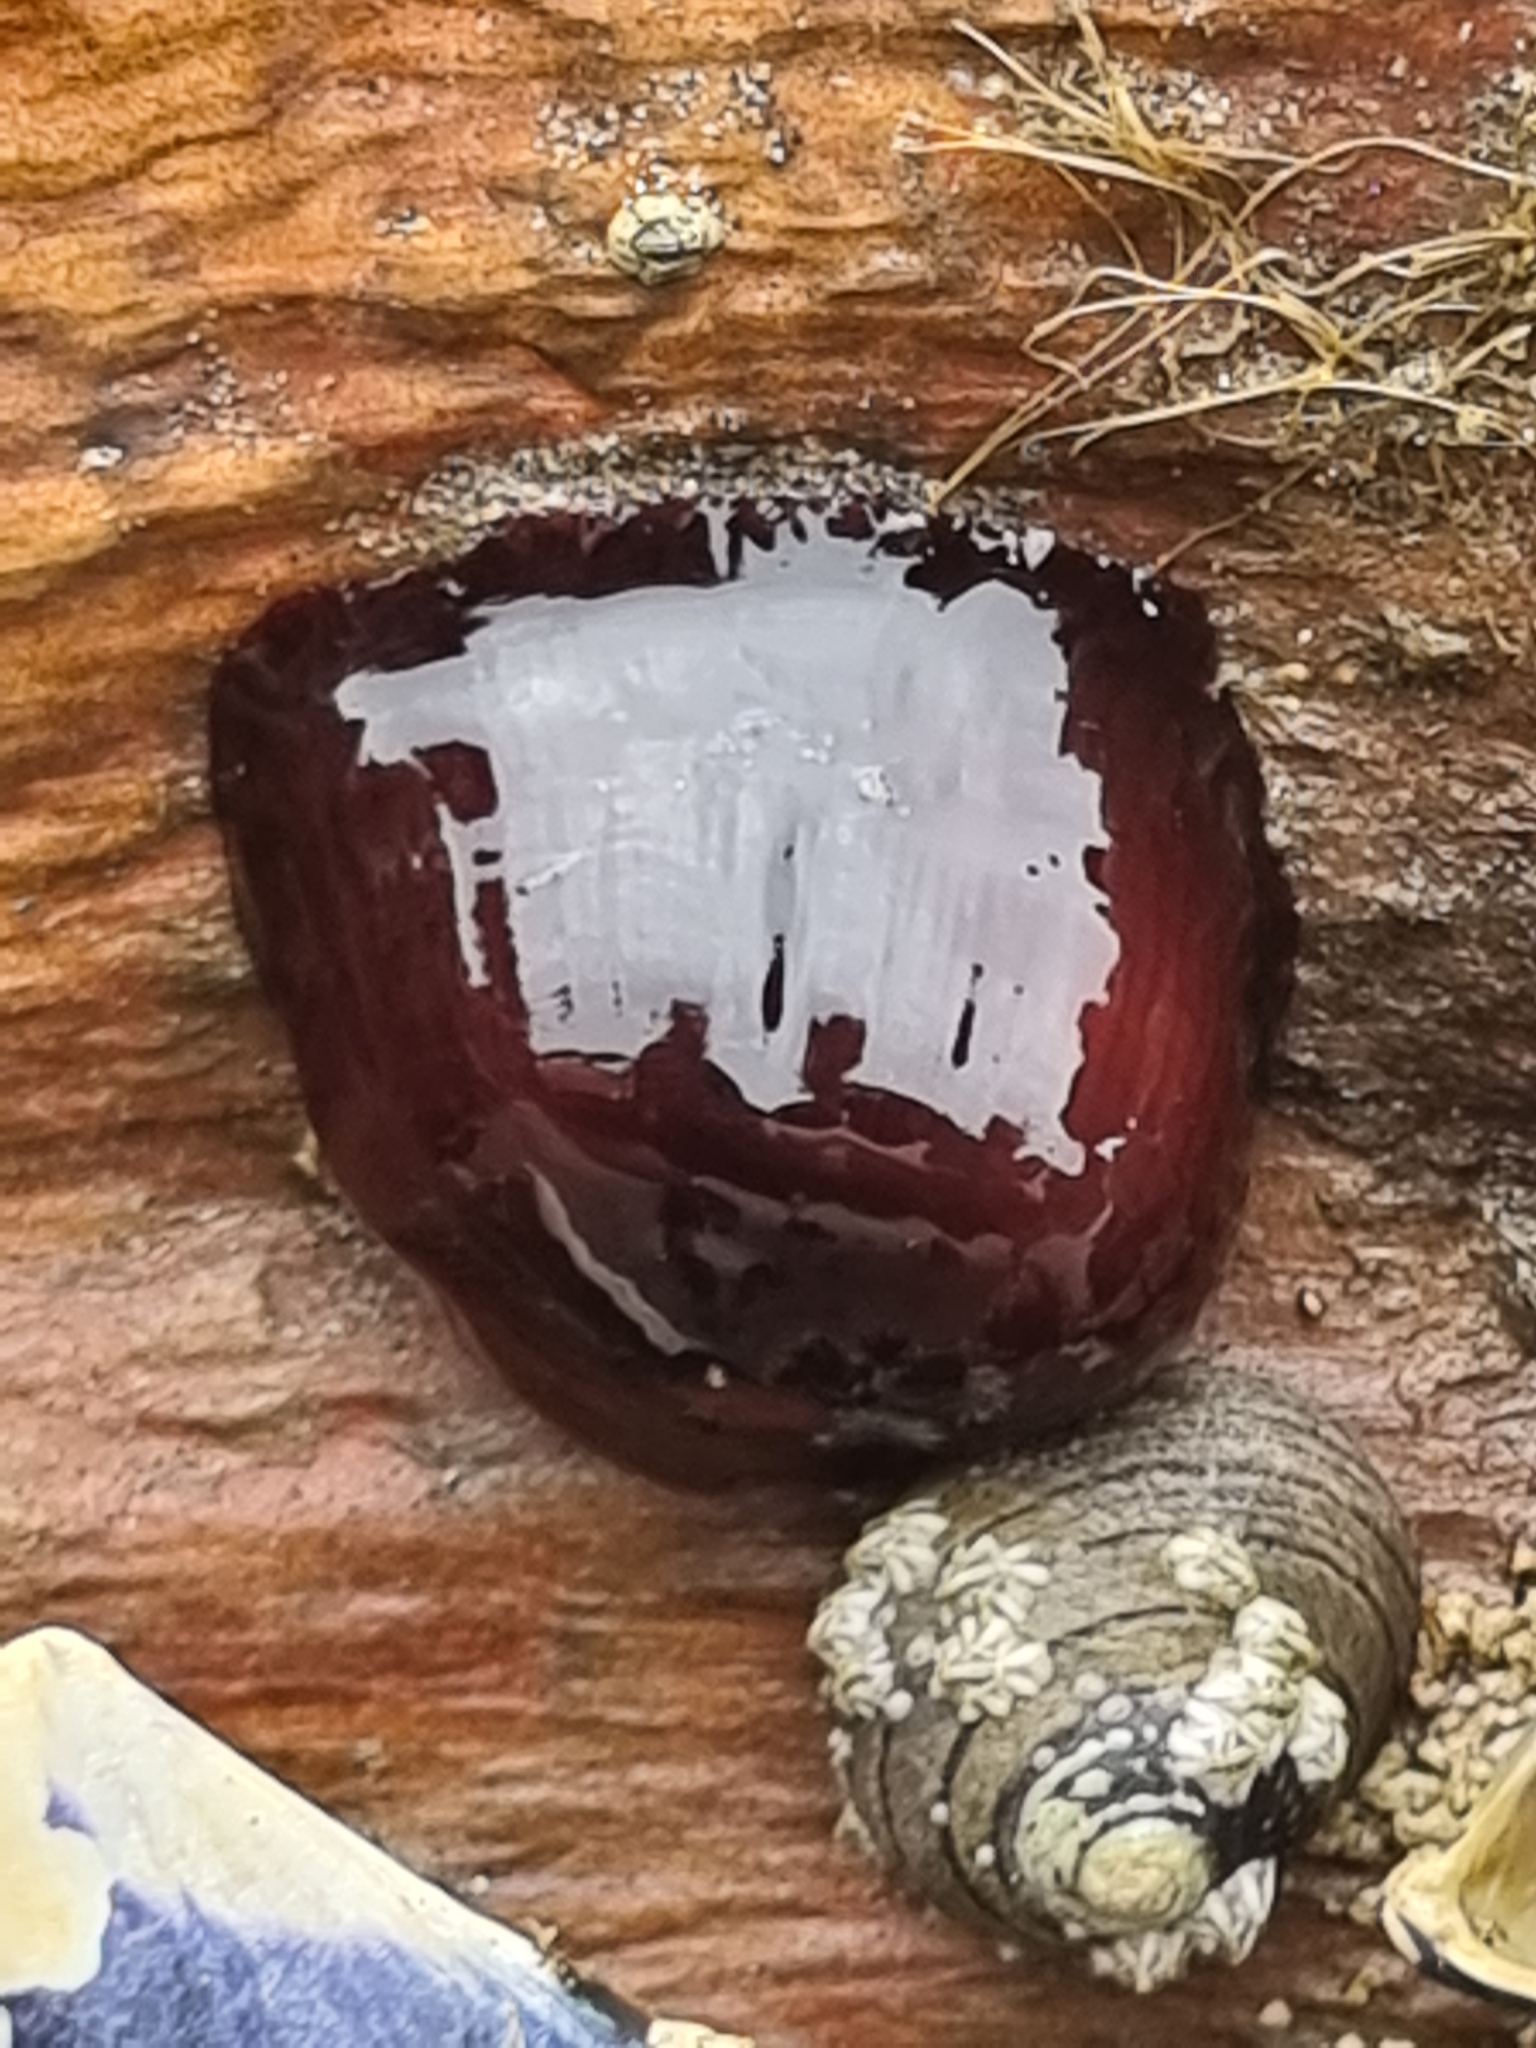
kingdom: Animalia
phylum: Cnidaria
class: Anthozoa
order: Actiniaria
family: Actiniidae
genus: Actinia
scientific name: Actinia tenebrosa
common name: Waratah anemone
